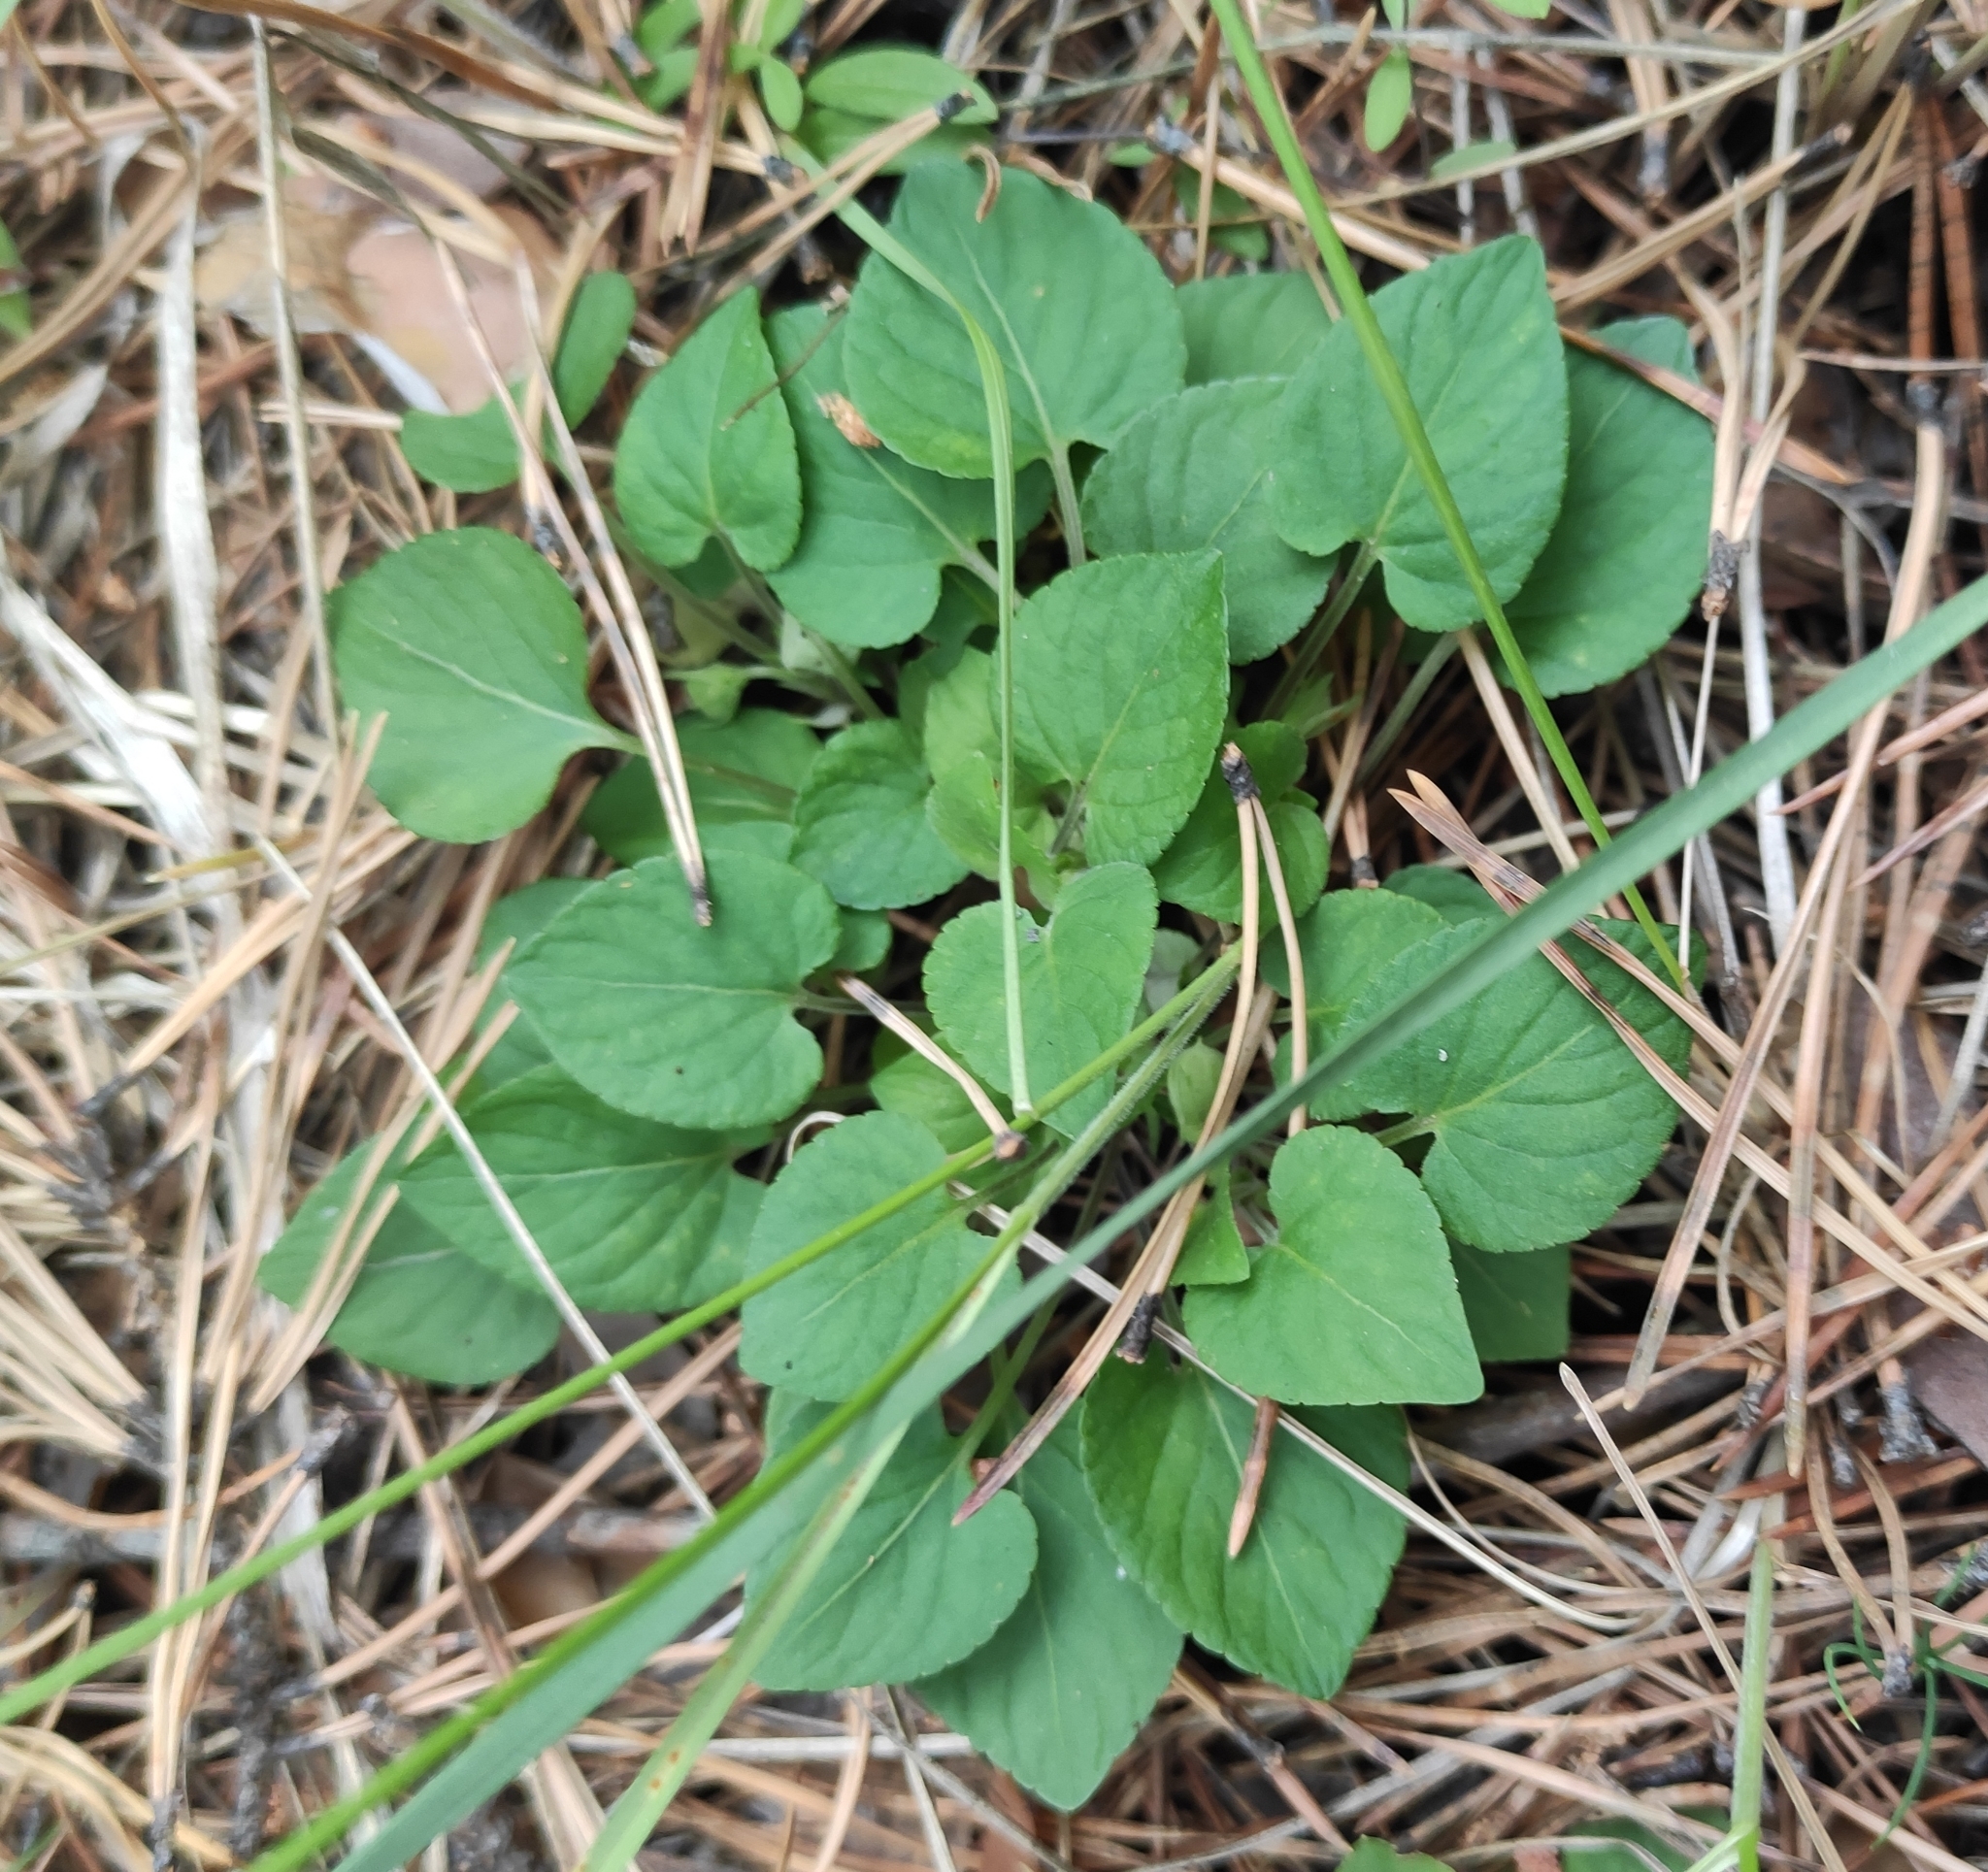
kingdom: Plantae
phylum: Tracheophyta
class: Magnoliopsida
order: Malpighiales
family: Violaceae
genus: Viola
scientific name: Viola rupestris
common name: Teesdale violet
